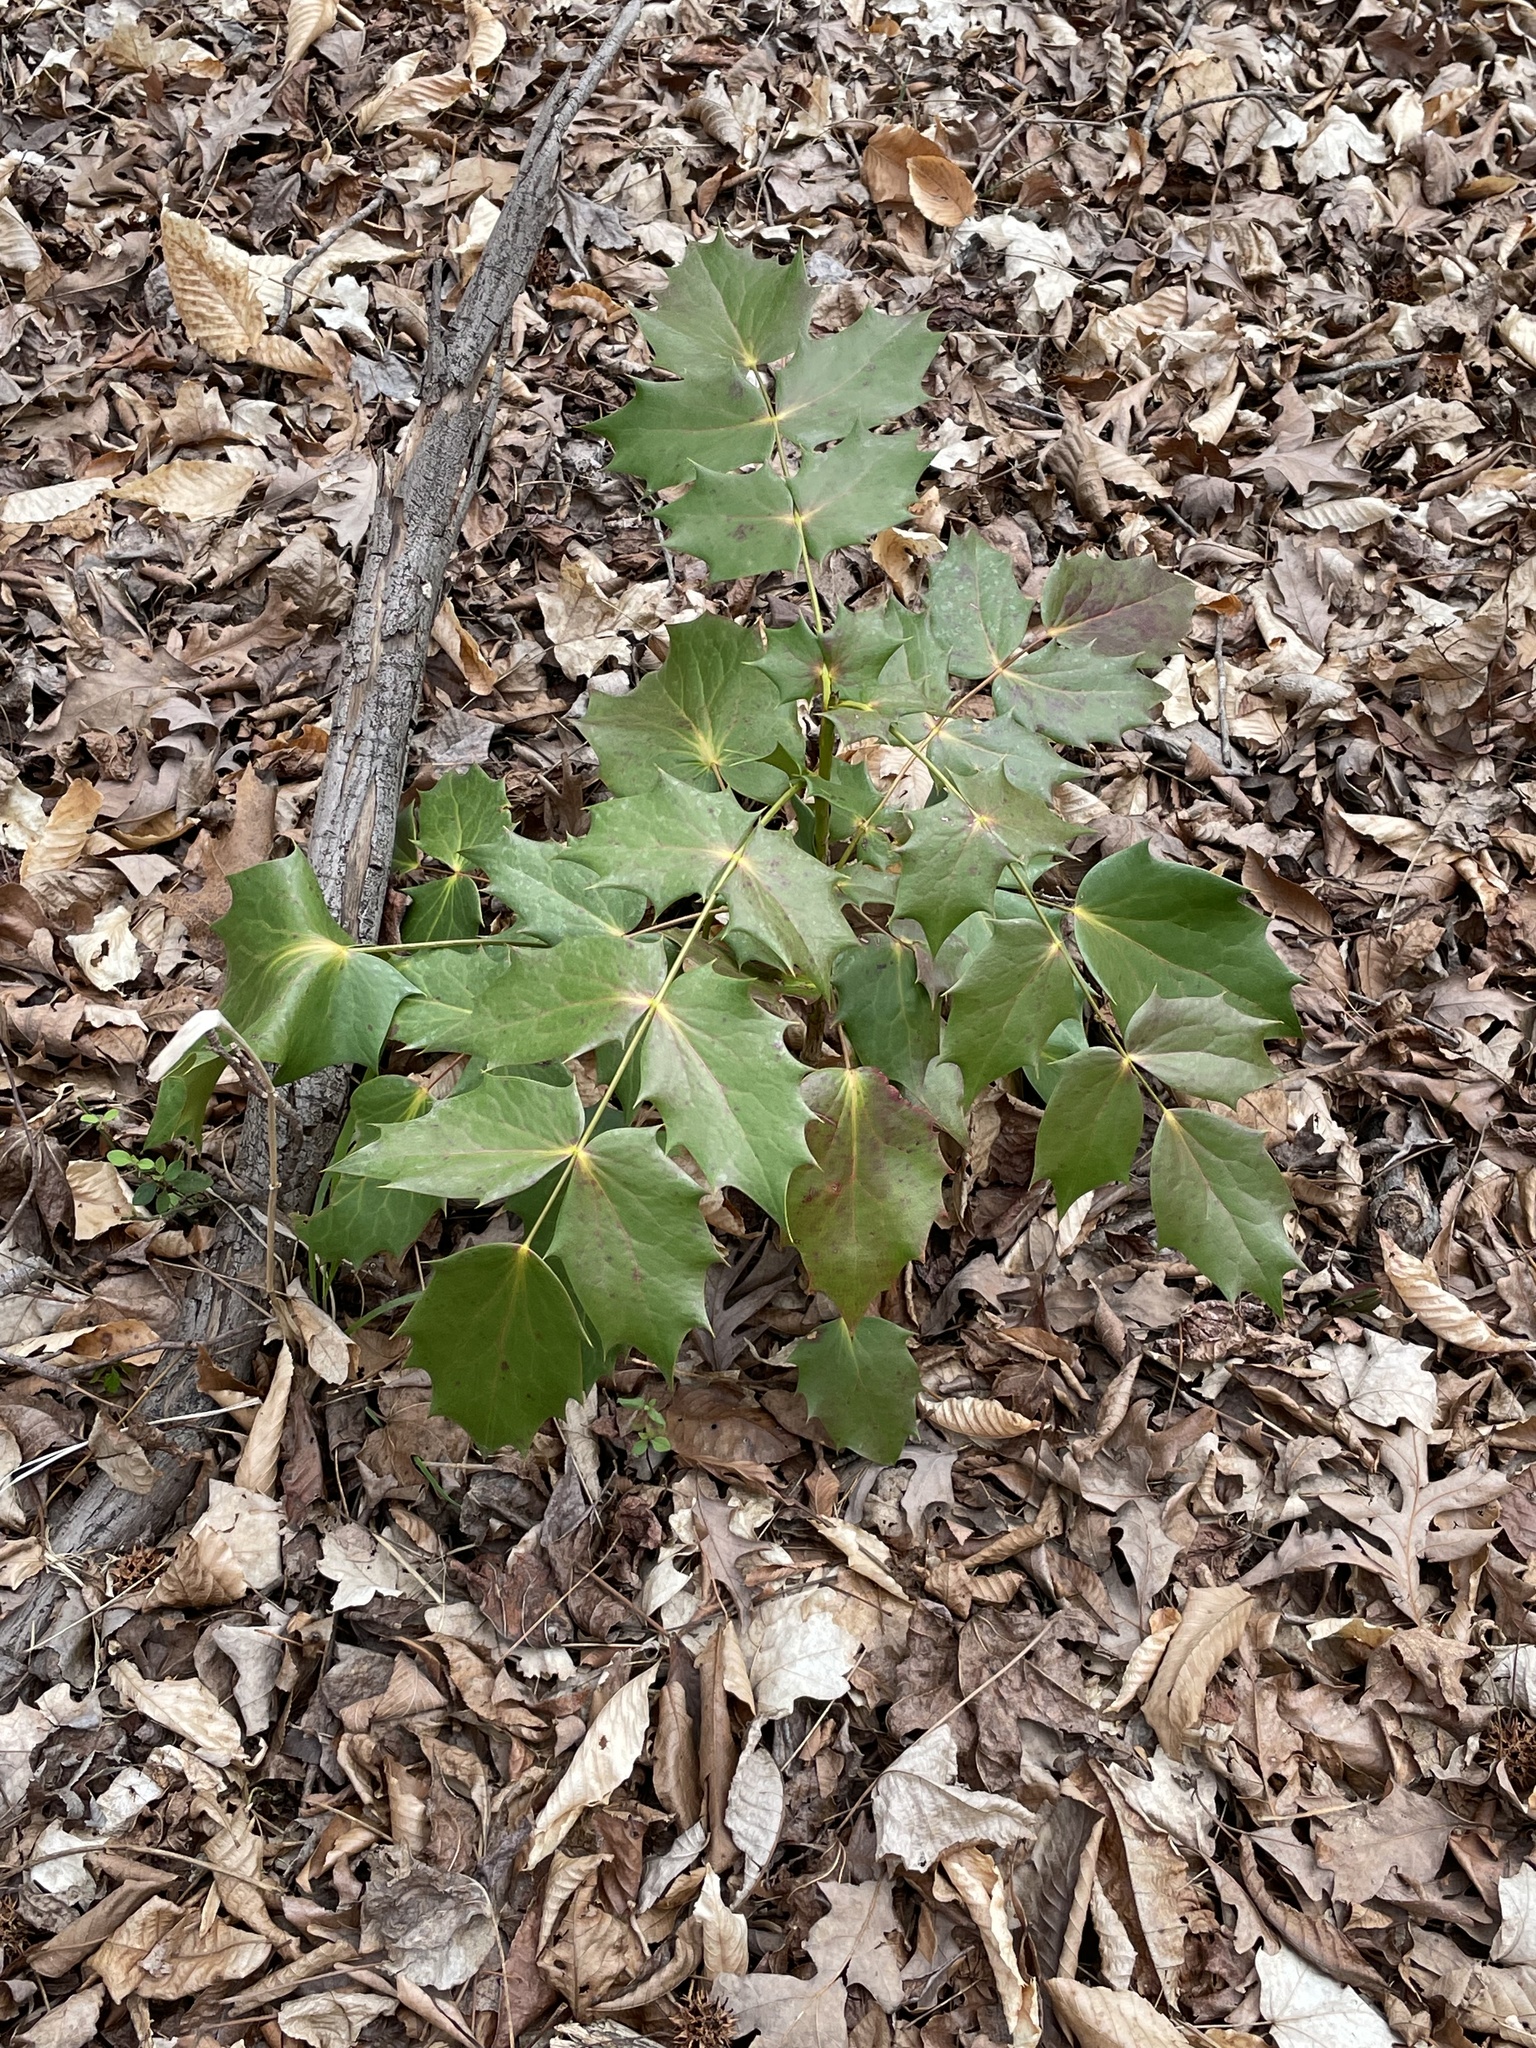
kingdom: Plantae
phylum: Tracheophyta
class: Magnoliopsida
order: Ranunculales
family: Berberidaceae
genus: Mahonia
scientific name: Mahonia bealei
